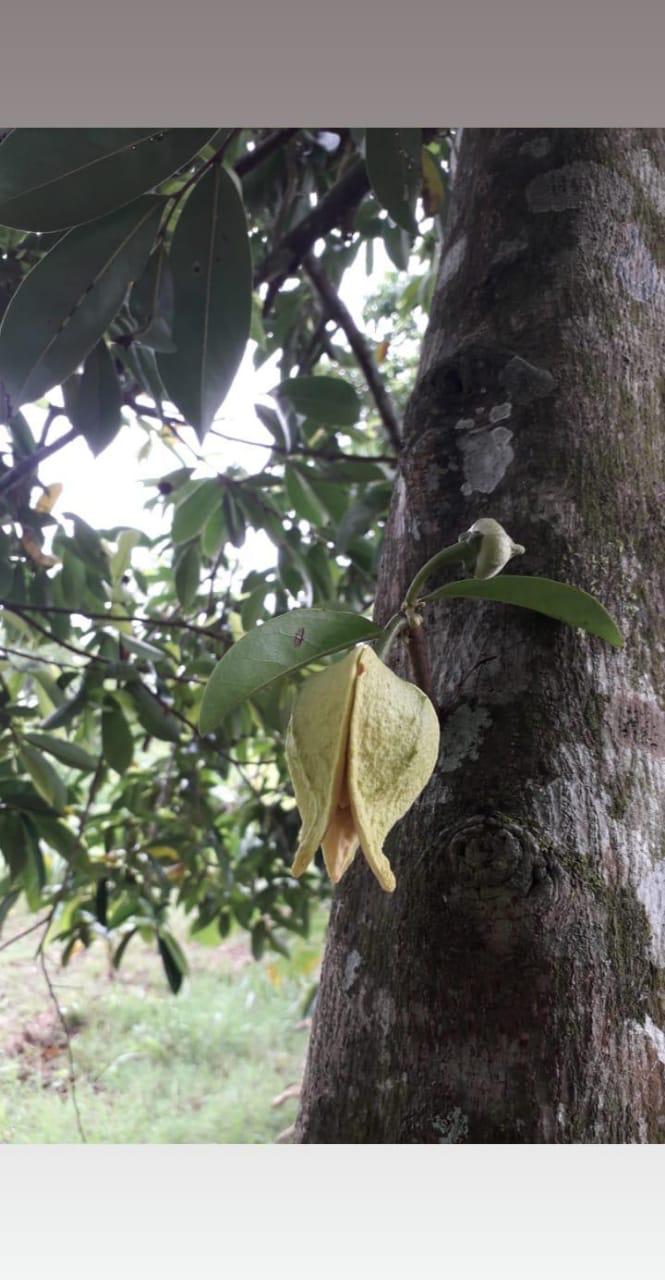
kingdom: Plantae
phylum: Tracheophyta
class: Magnoliopsida
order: Magnoliales
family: Annonaceae
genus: Annona
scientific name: Annona muricata
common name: Soursop
